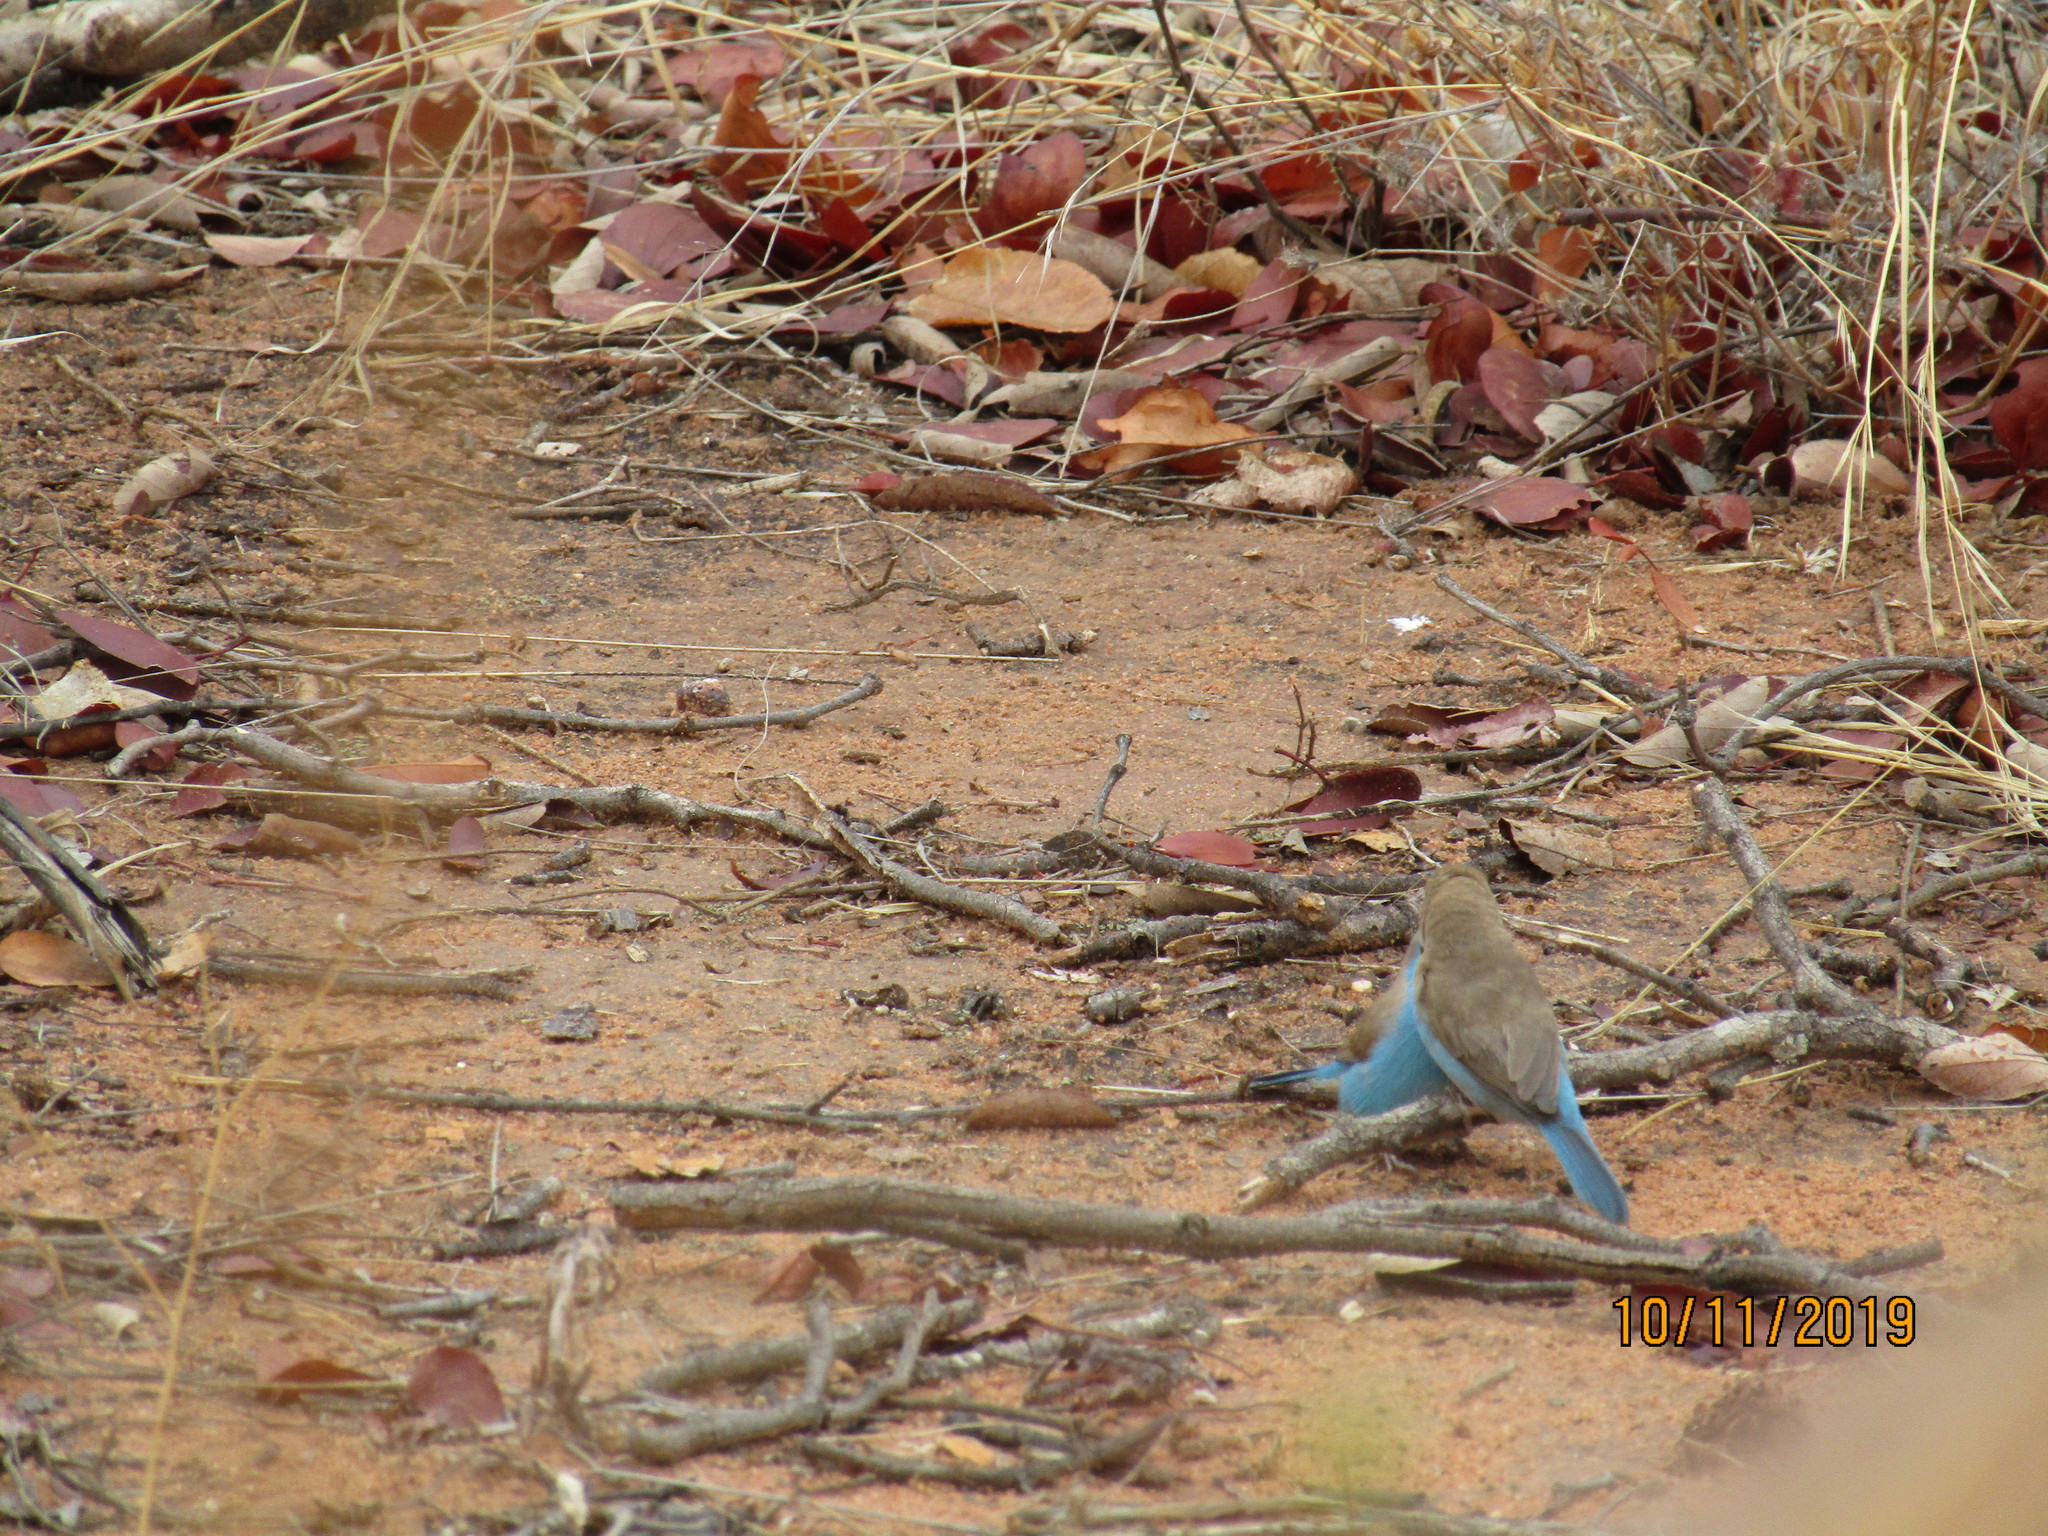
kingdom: Animalia
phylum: Chordata
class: Aves
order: Passeriformes
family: Estrildidae
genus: Uraeginthus
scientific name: Uraeginthus angolensis
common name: Blue waxbill
